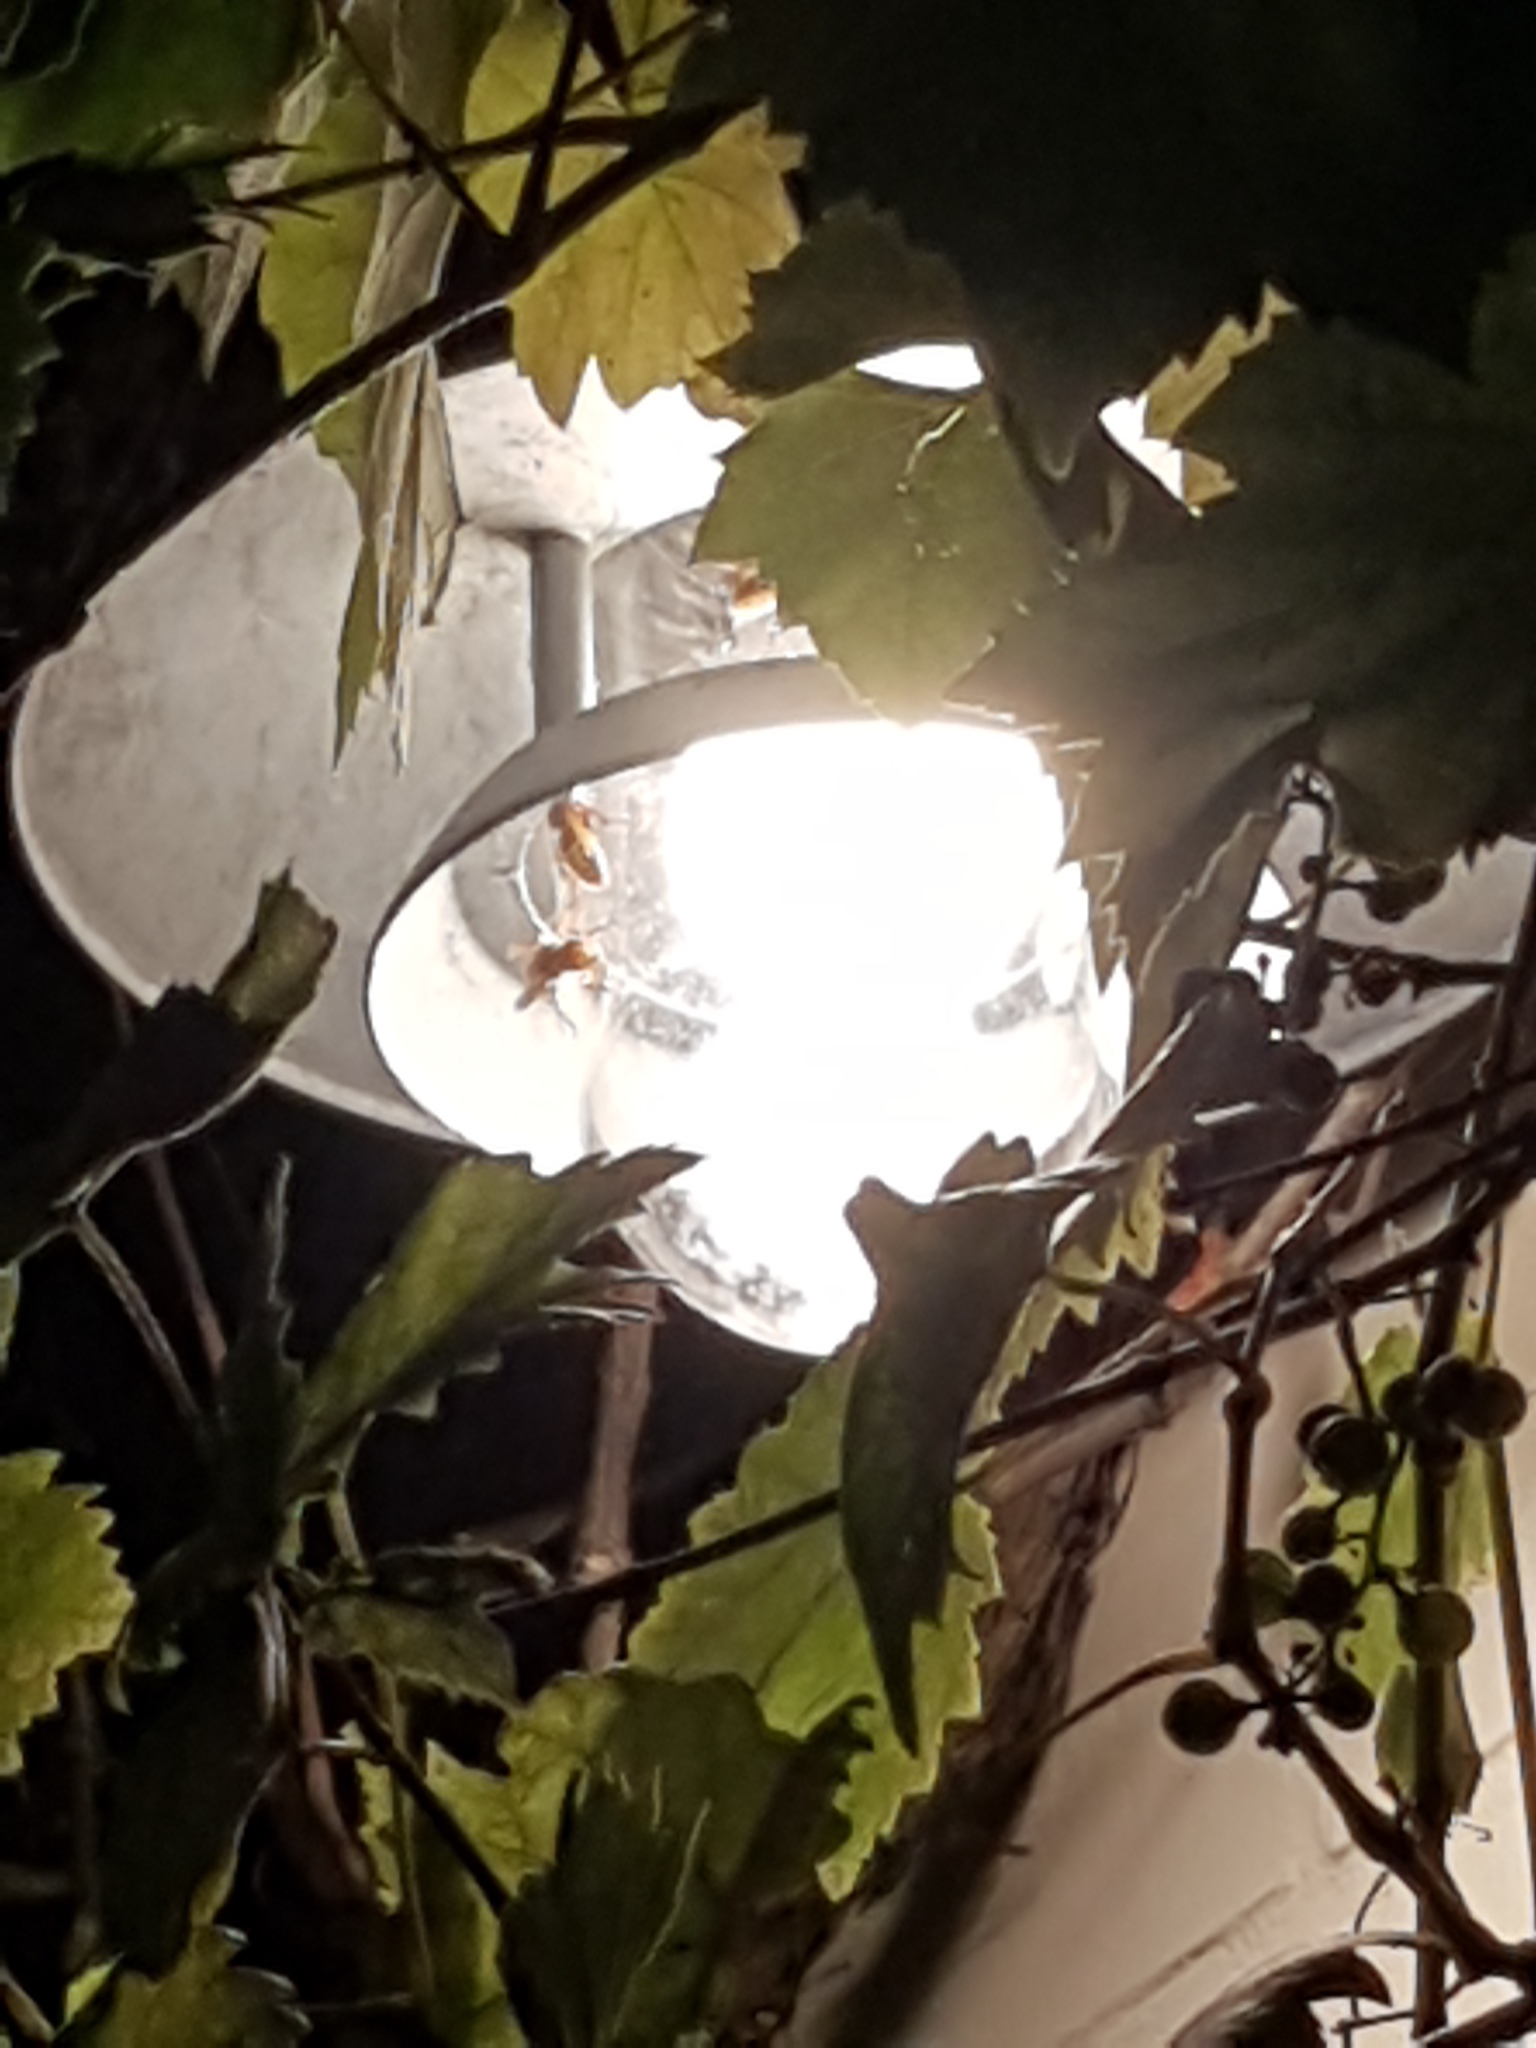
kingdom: Animalia
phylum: Arthropoda
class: Insecta
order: Hymenoptera
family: Vespidae
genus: Vespa
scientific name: Vespa crabro
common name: Hornet
